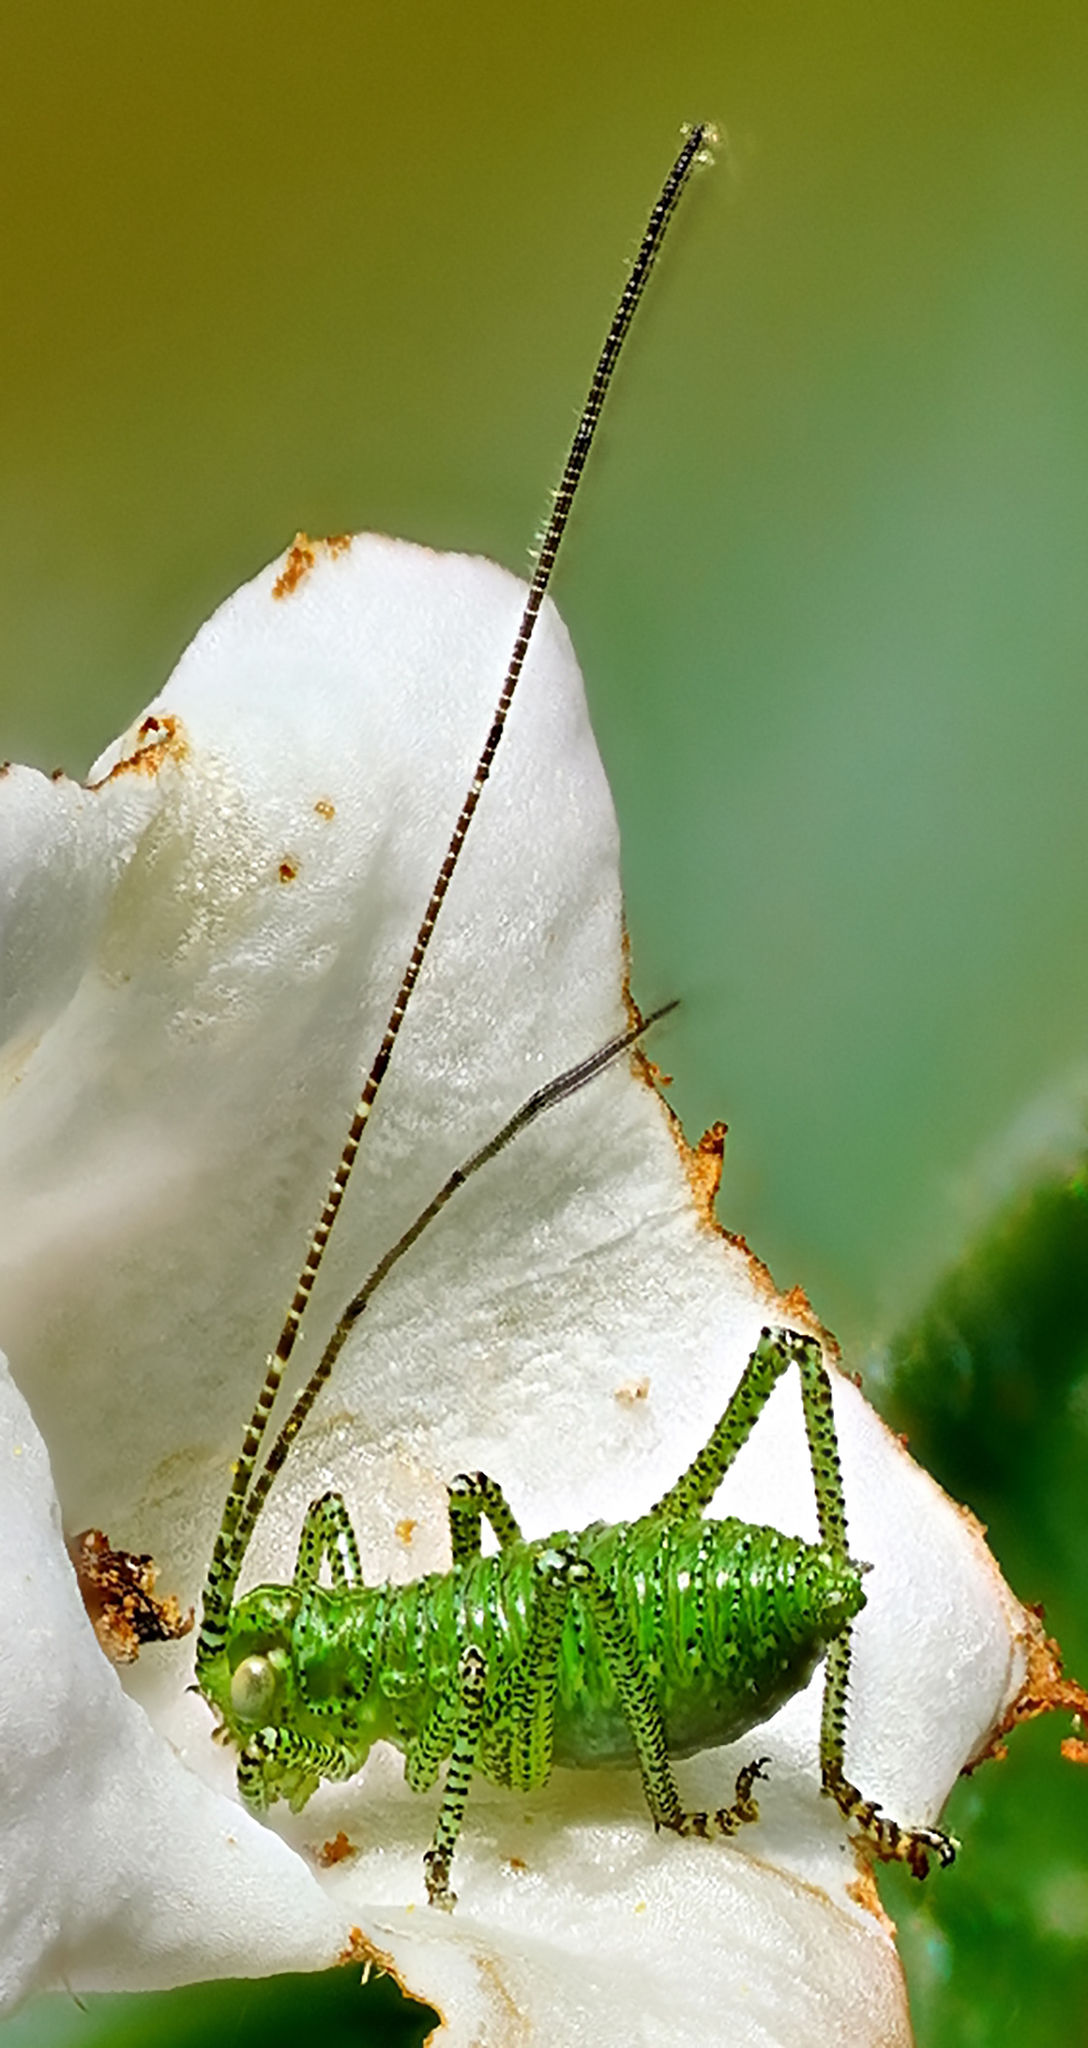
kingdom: Plantae
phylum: Tracheophyta
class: Magnoliopsida
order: Boraginales
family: Namaceae
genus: Eriodictyon
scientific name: Eriodictyon californicum
